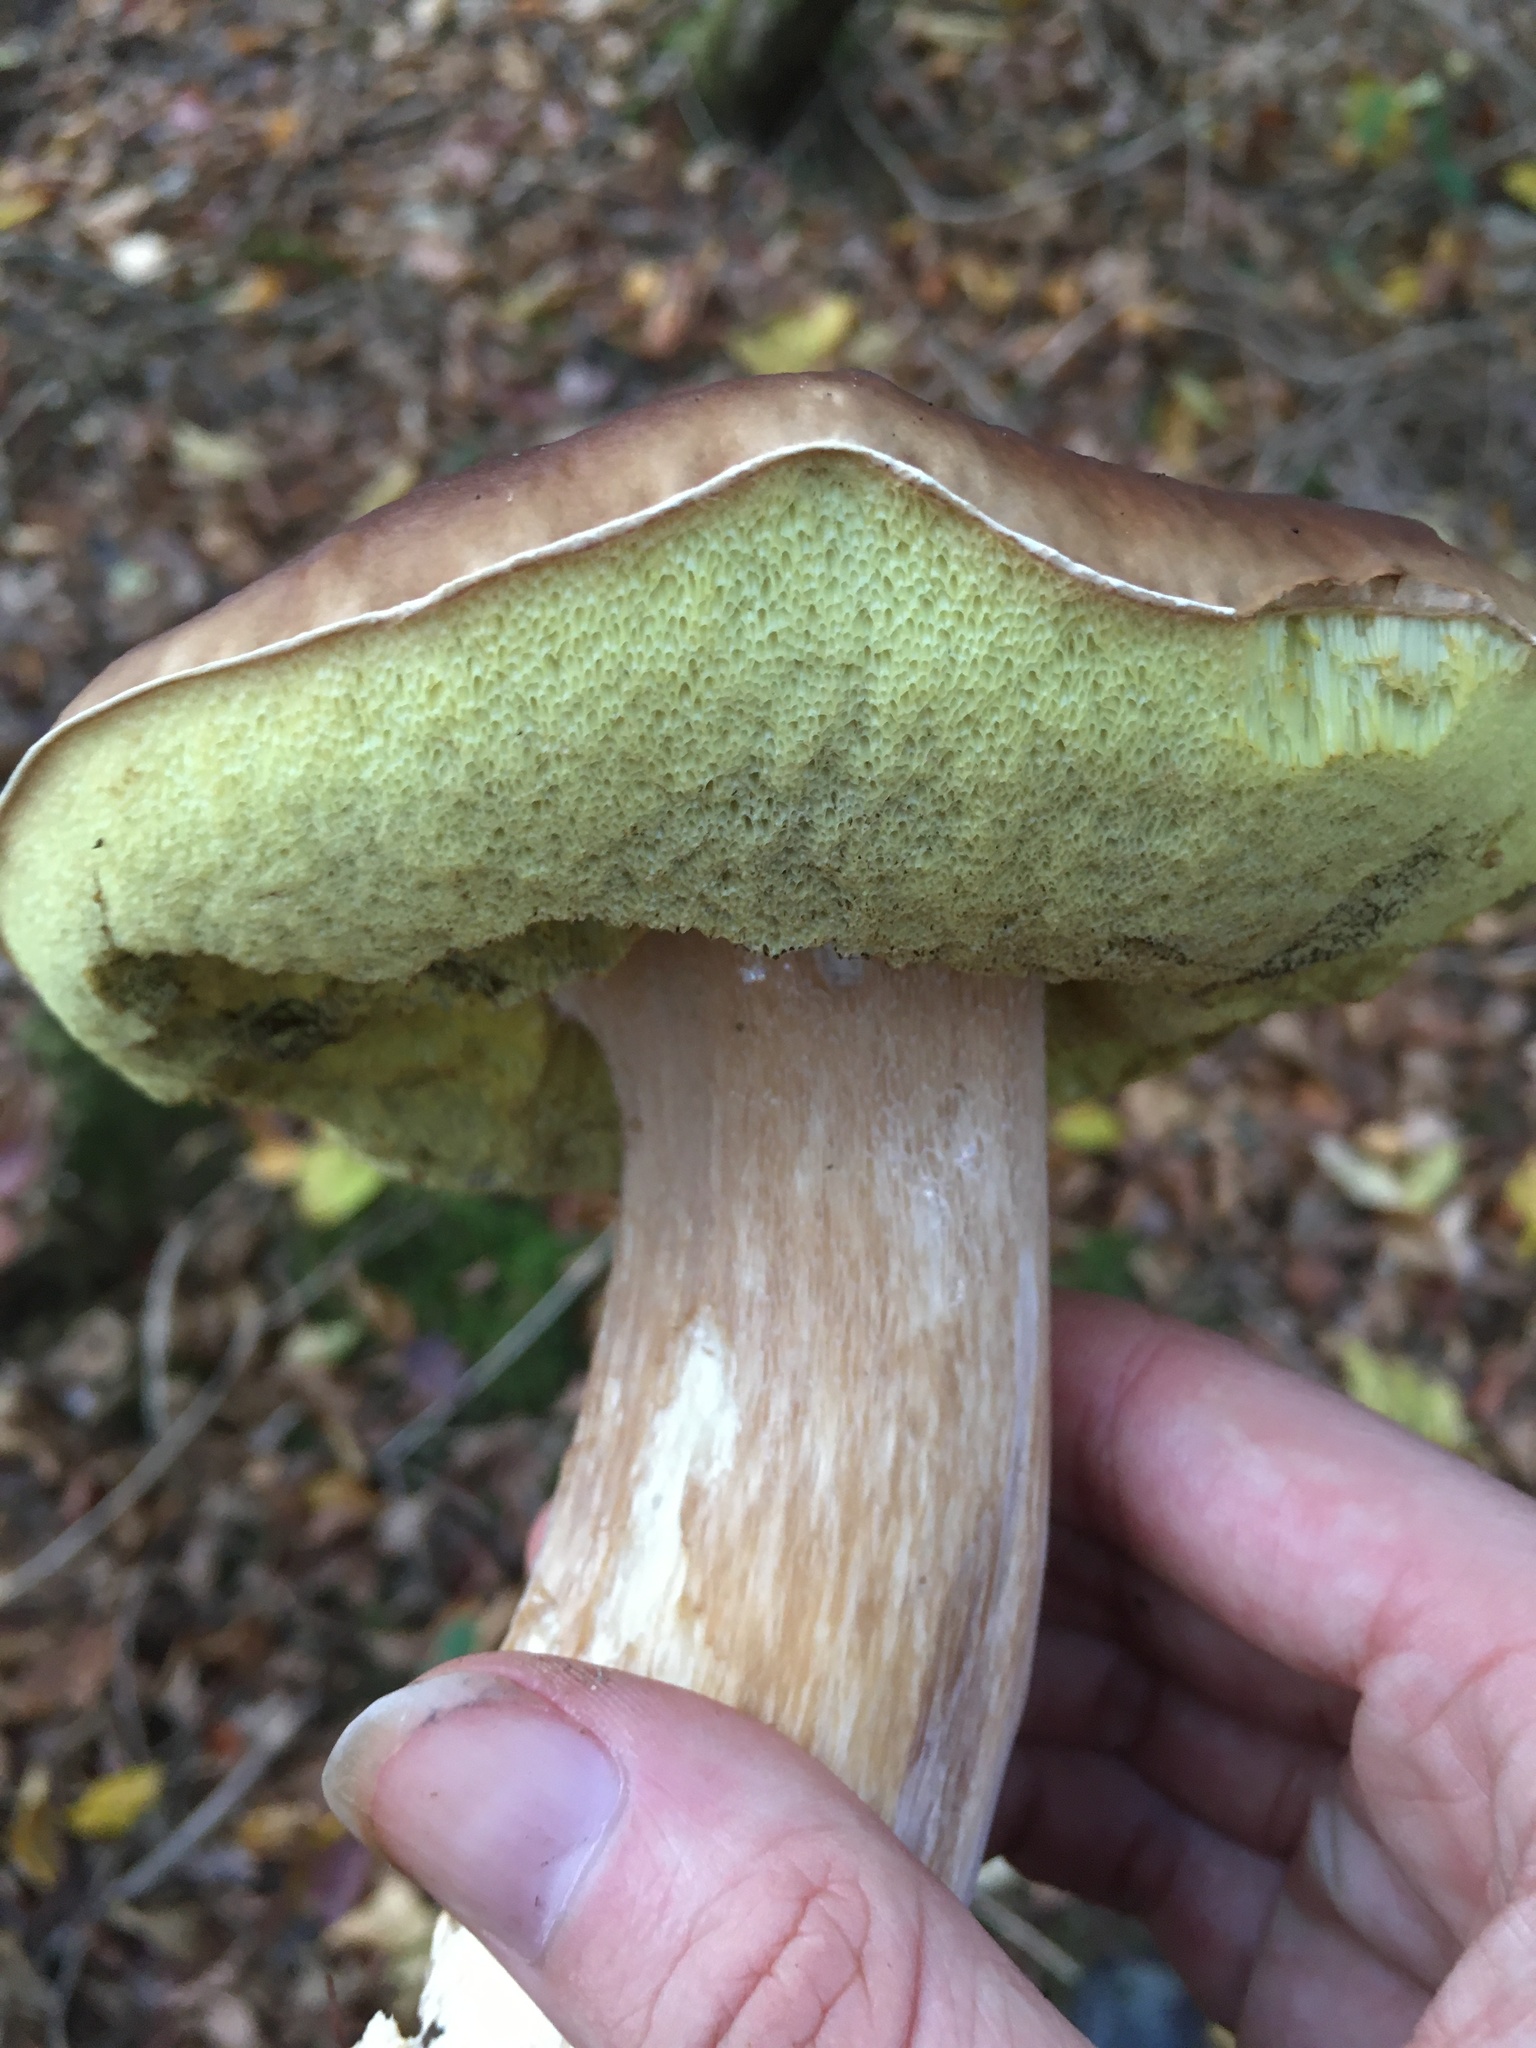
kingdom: Fungi
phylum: Basidiomycota
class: Agaricomycetes
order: Boletales
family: Boletaceae
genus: Boletus
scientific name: Boletus edulis
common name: Cep
